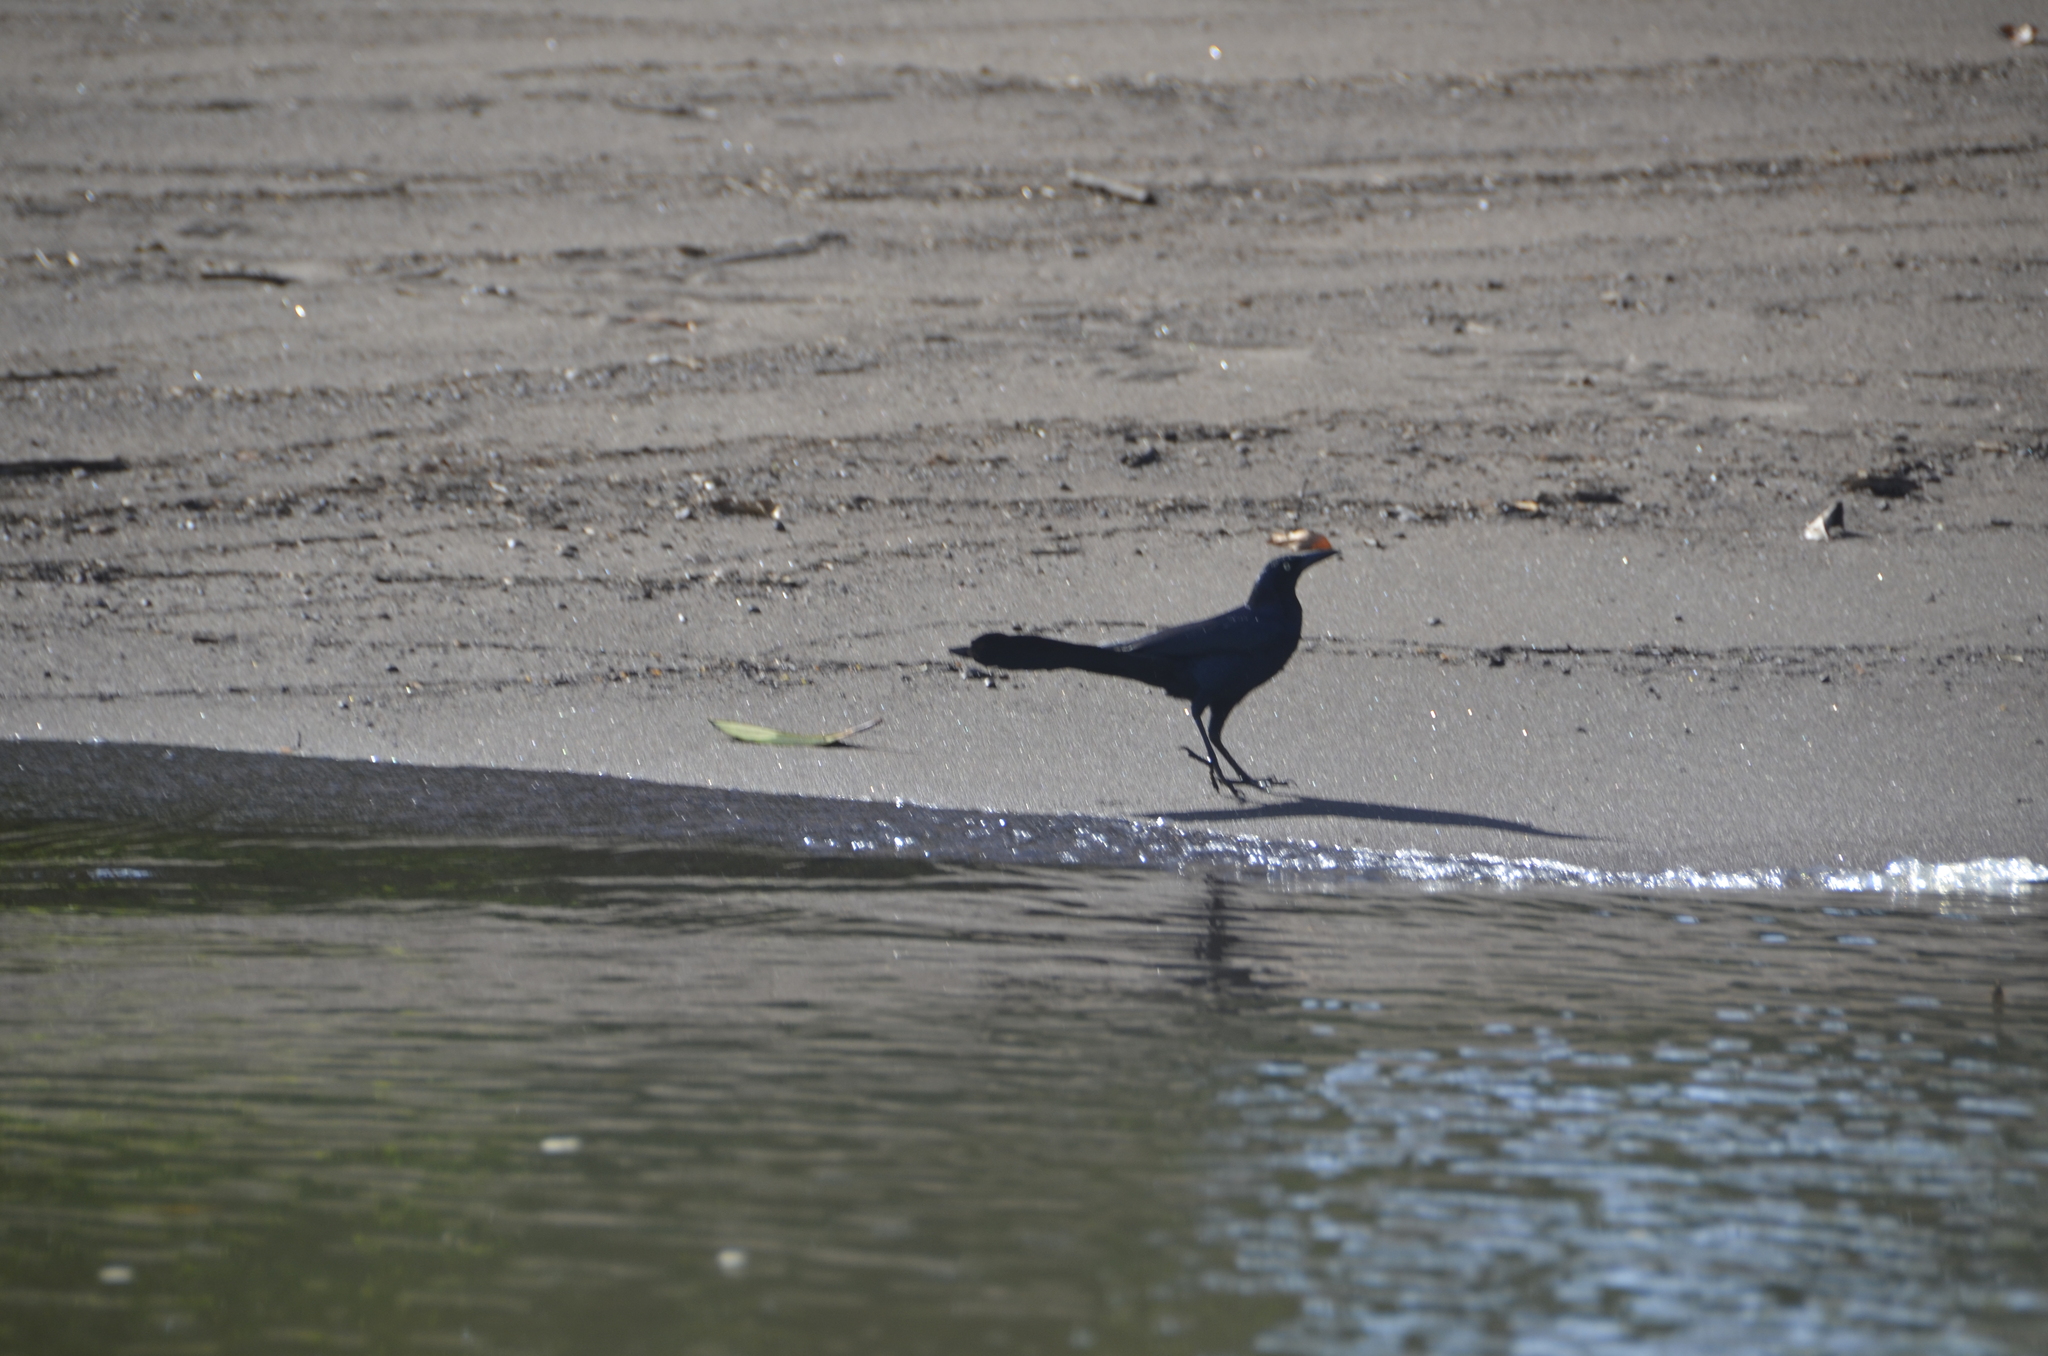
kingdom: Animalia
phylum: Chordata
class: Aves
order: Passeriformes
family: Icteridae
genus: Quiscalus
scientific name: Quiscalus mexicanus
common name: Great-tailed grackle
